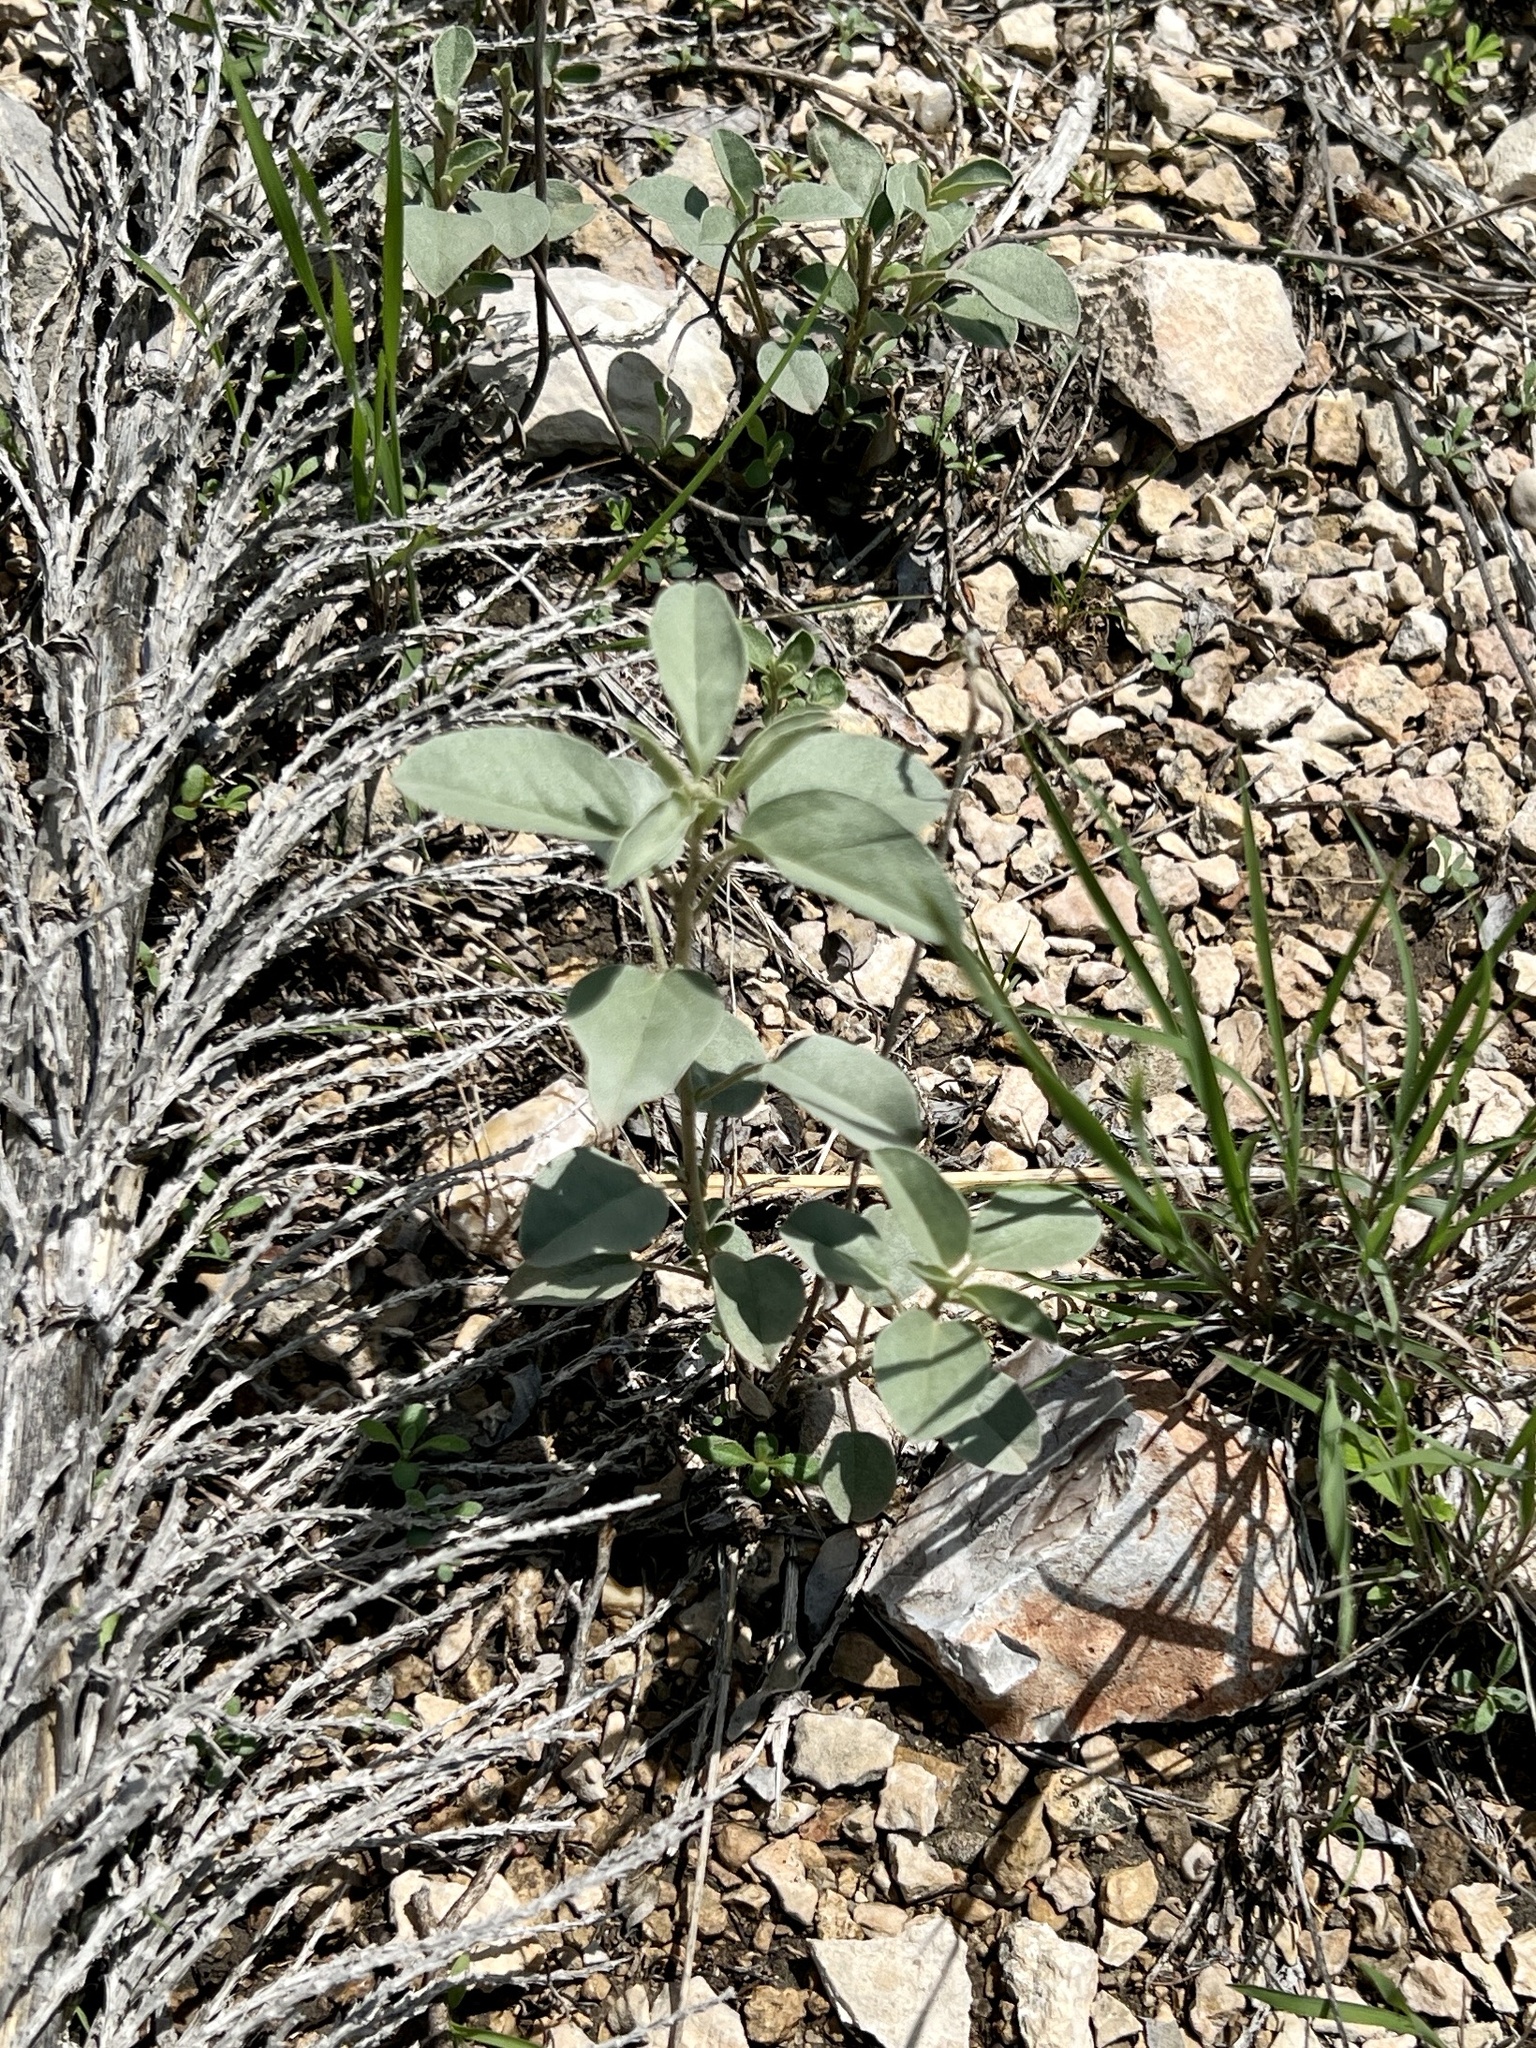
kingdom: Plantae
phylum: Tracheophyta
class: Magnoliopsida
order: Malpighiales
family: Euphorbiaceae
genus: Croton
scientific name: Croton pottsii
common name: Leatherweed
